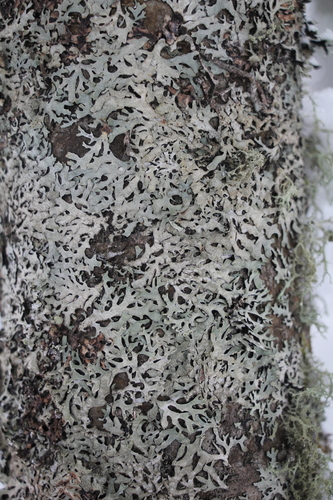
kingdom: Fungi
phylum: Ascomycota
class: Lecanoromycetes
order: Lecanorales
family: Parmeliaceae
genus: Parmelia
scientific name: Parmelia
